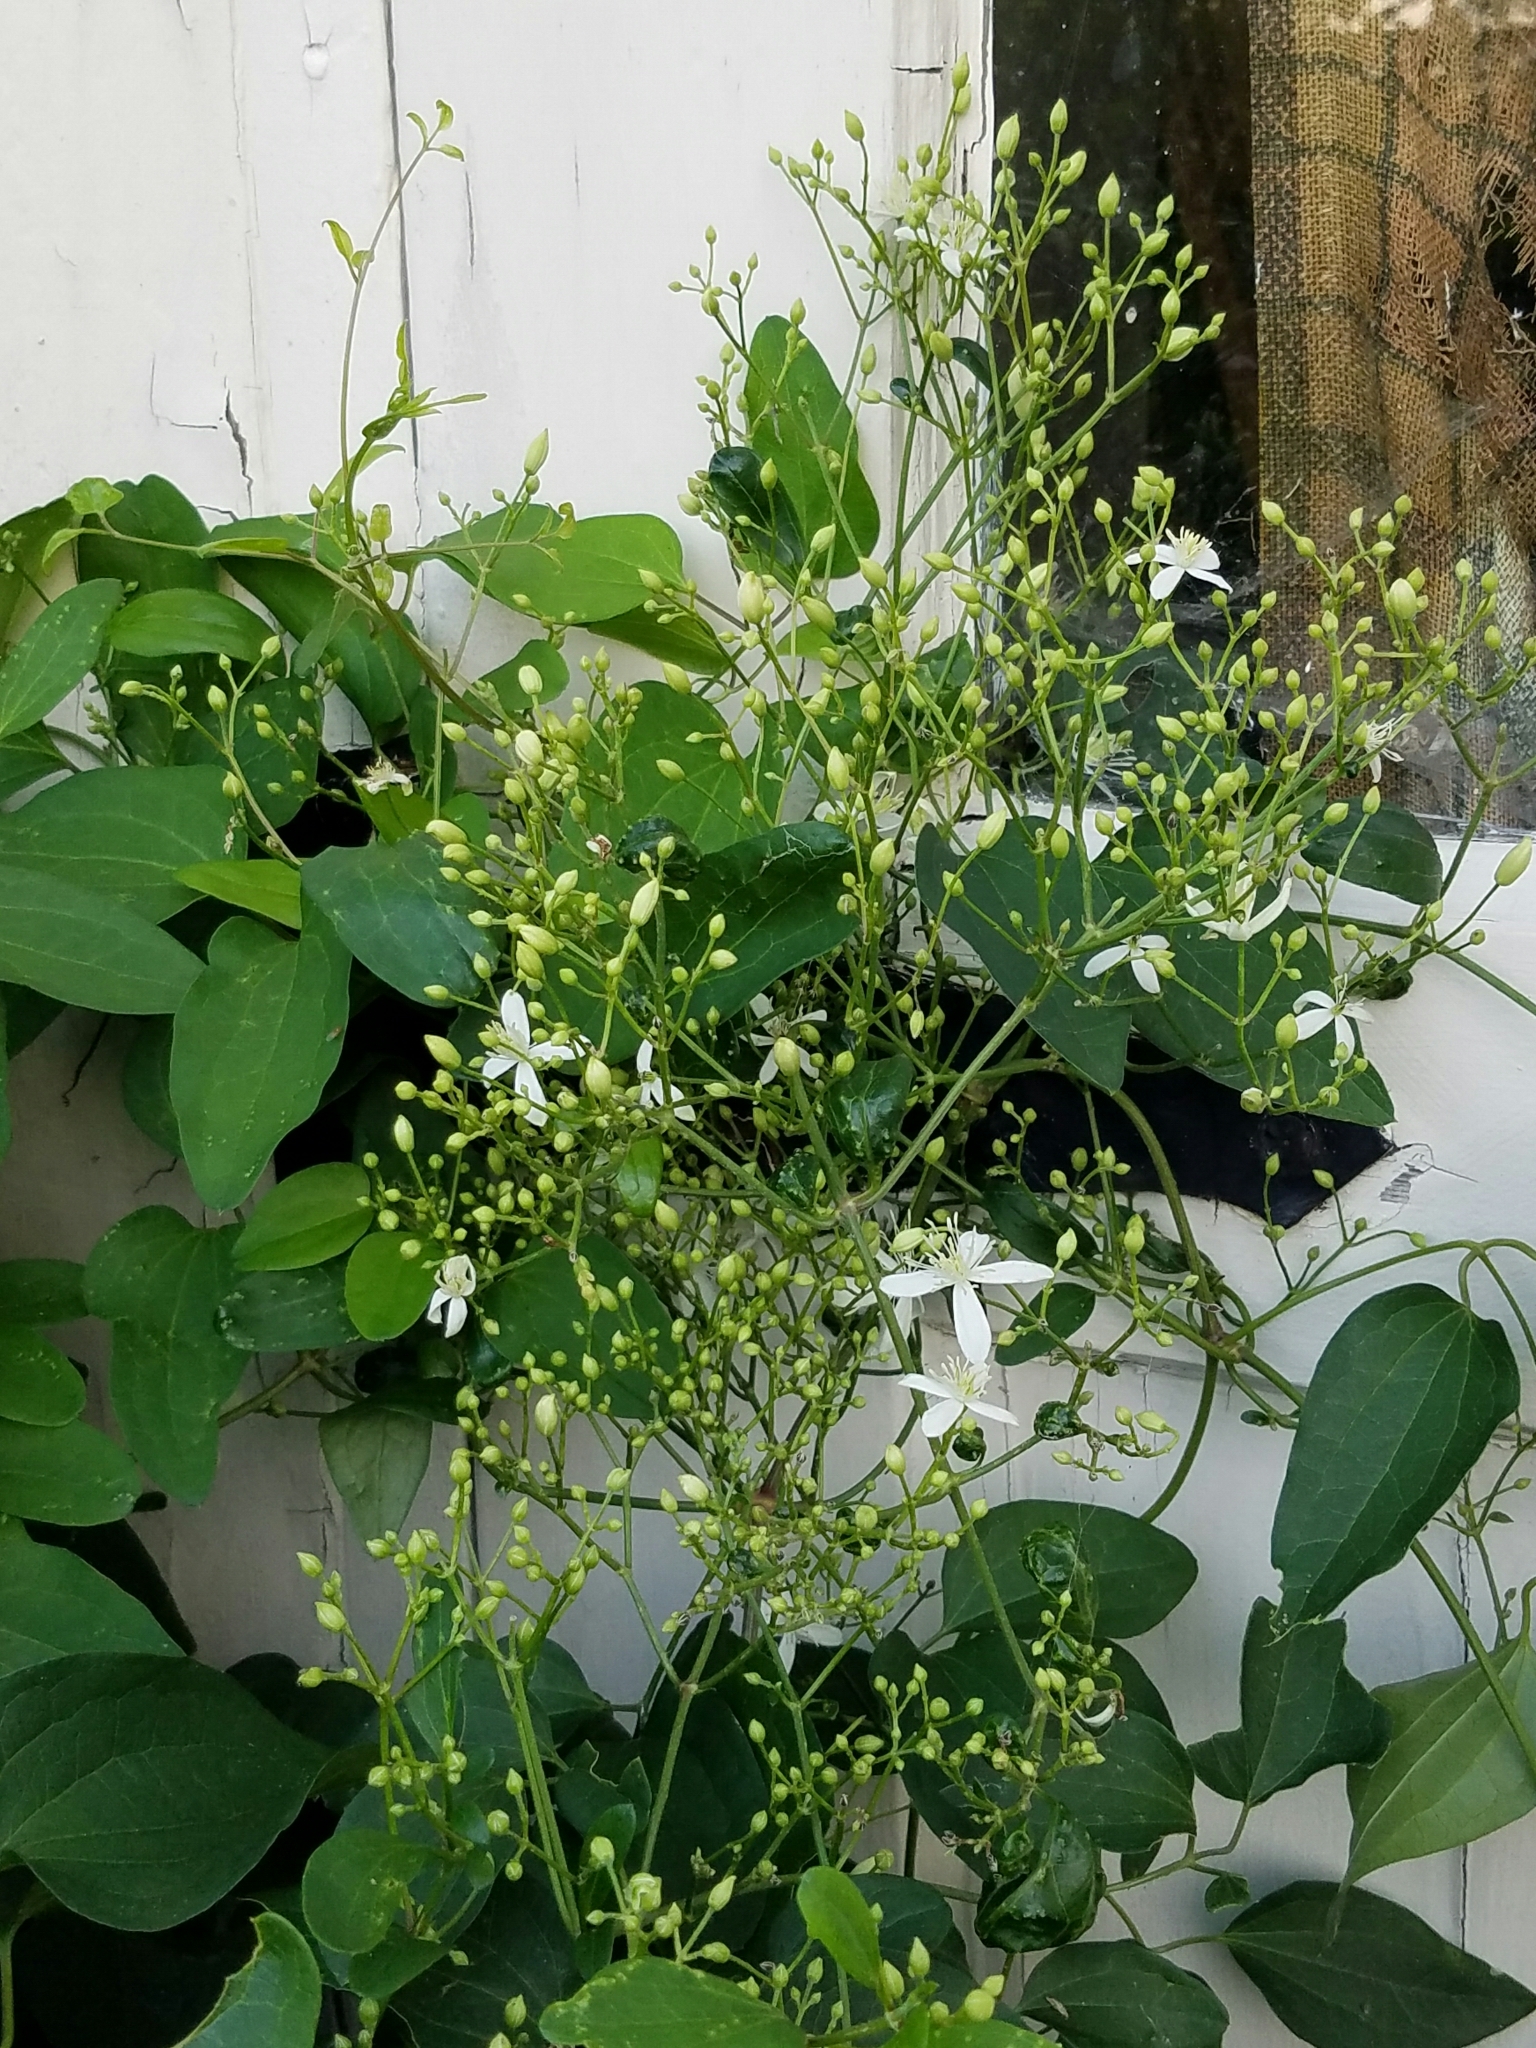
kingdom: Plantae
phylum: Tracheophyta
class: Magnoliopsida
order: Ranunculales
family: Ranunculaceae
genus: Clematis
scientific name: Clematis terniflora
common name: Sweet autumn clematis
